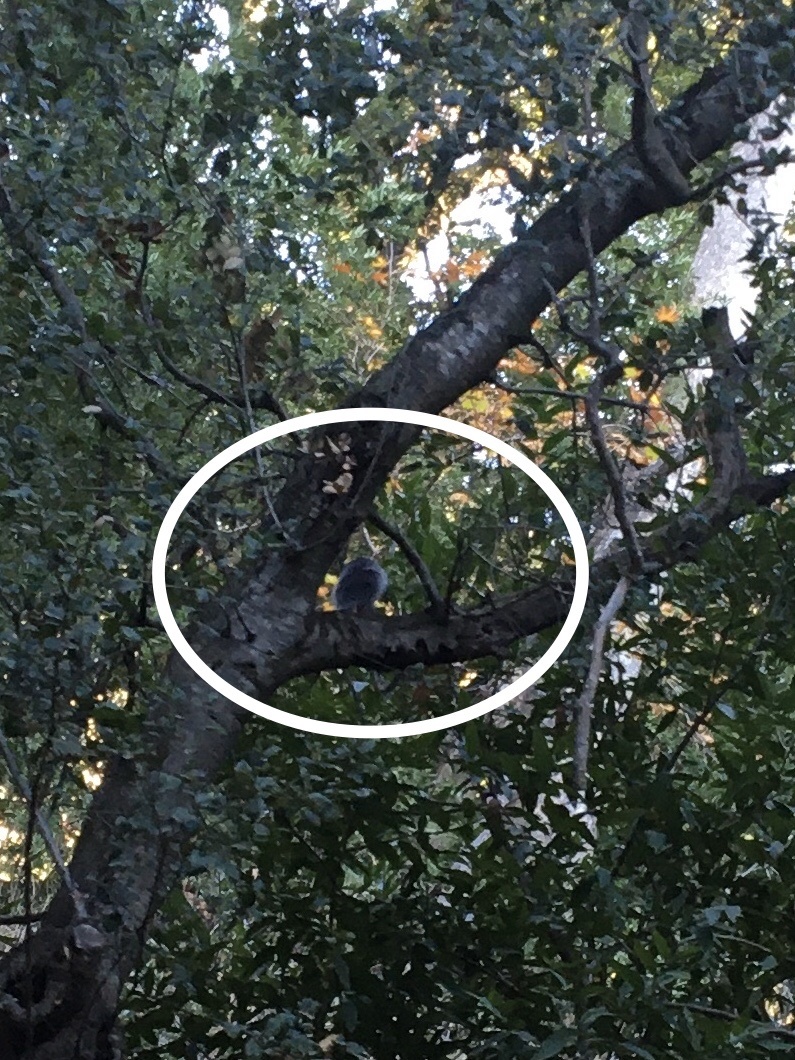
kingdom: Animalia
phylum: Chordata
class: Mammalia
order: Rodentia
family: Sciuridae
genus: Sciurus
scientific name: Sciurus griseus
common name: Western gray squirrel
